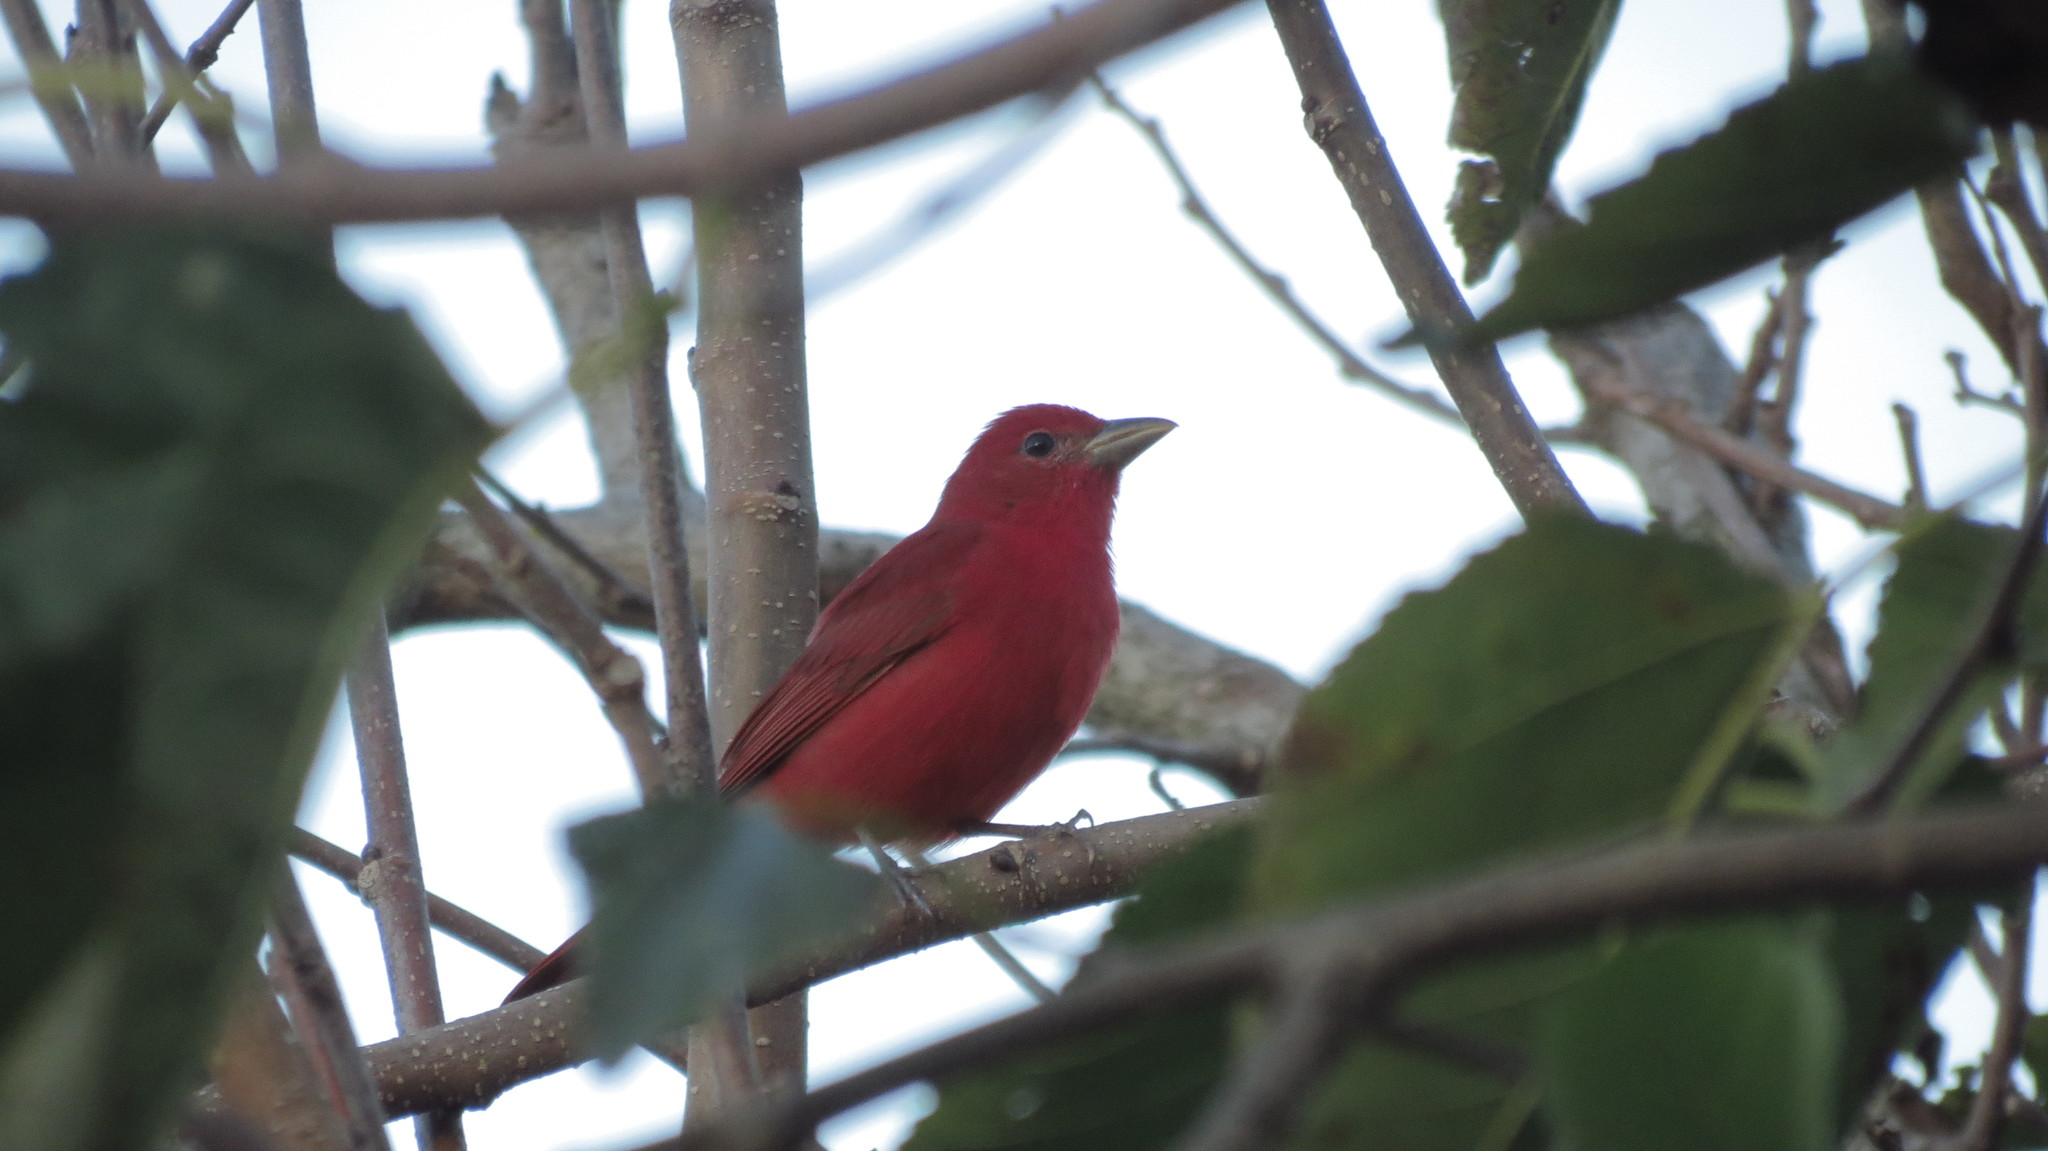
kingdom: Animalia
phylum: Chordata
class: Aves
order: Passeriformes
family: Cardinalidae
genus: Piranga
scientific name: Piranga rubra
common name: Summer tanager
